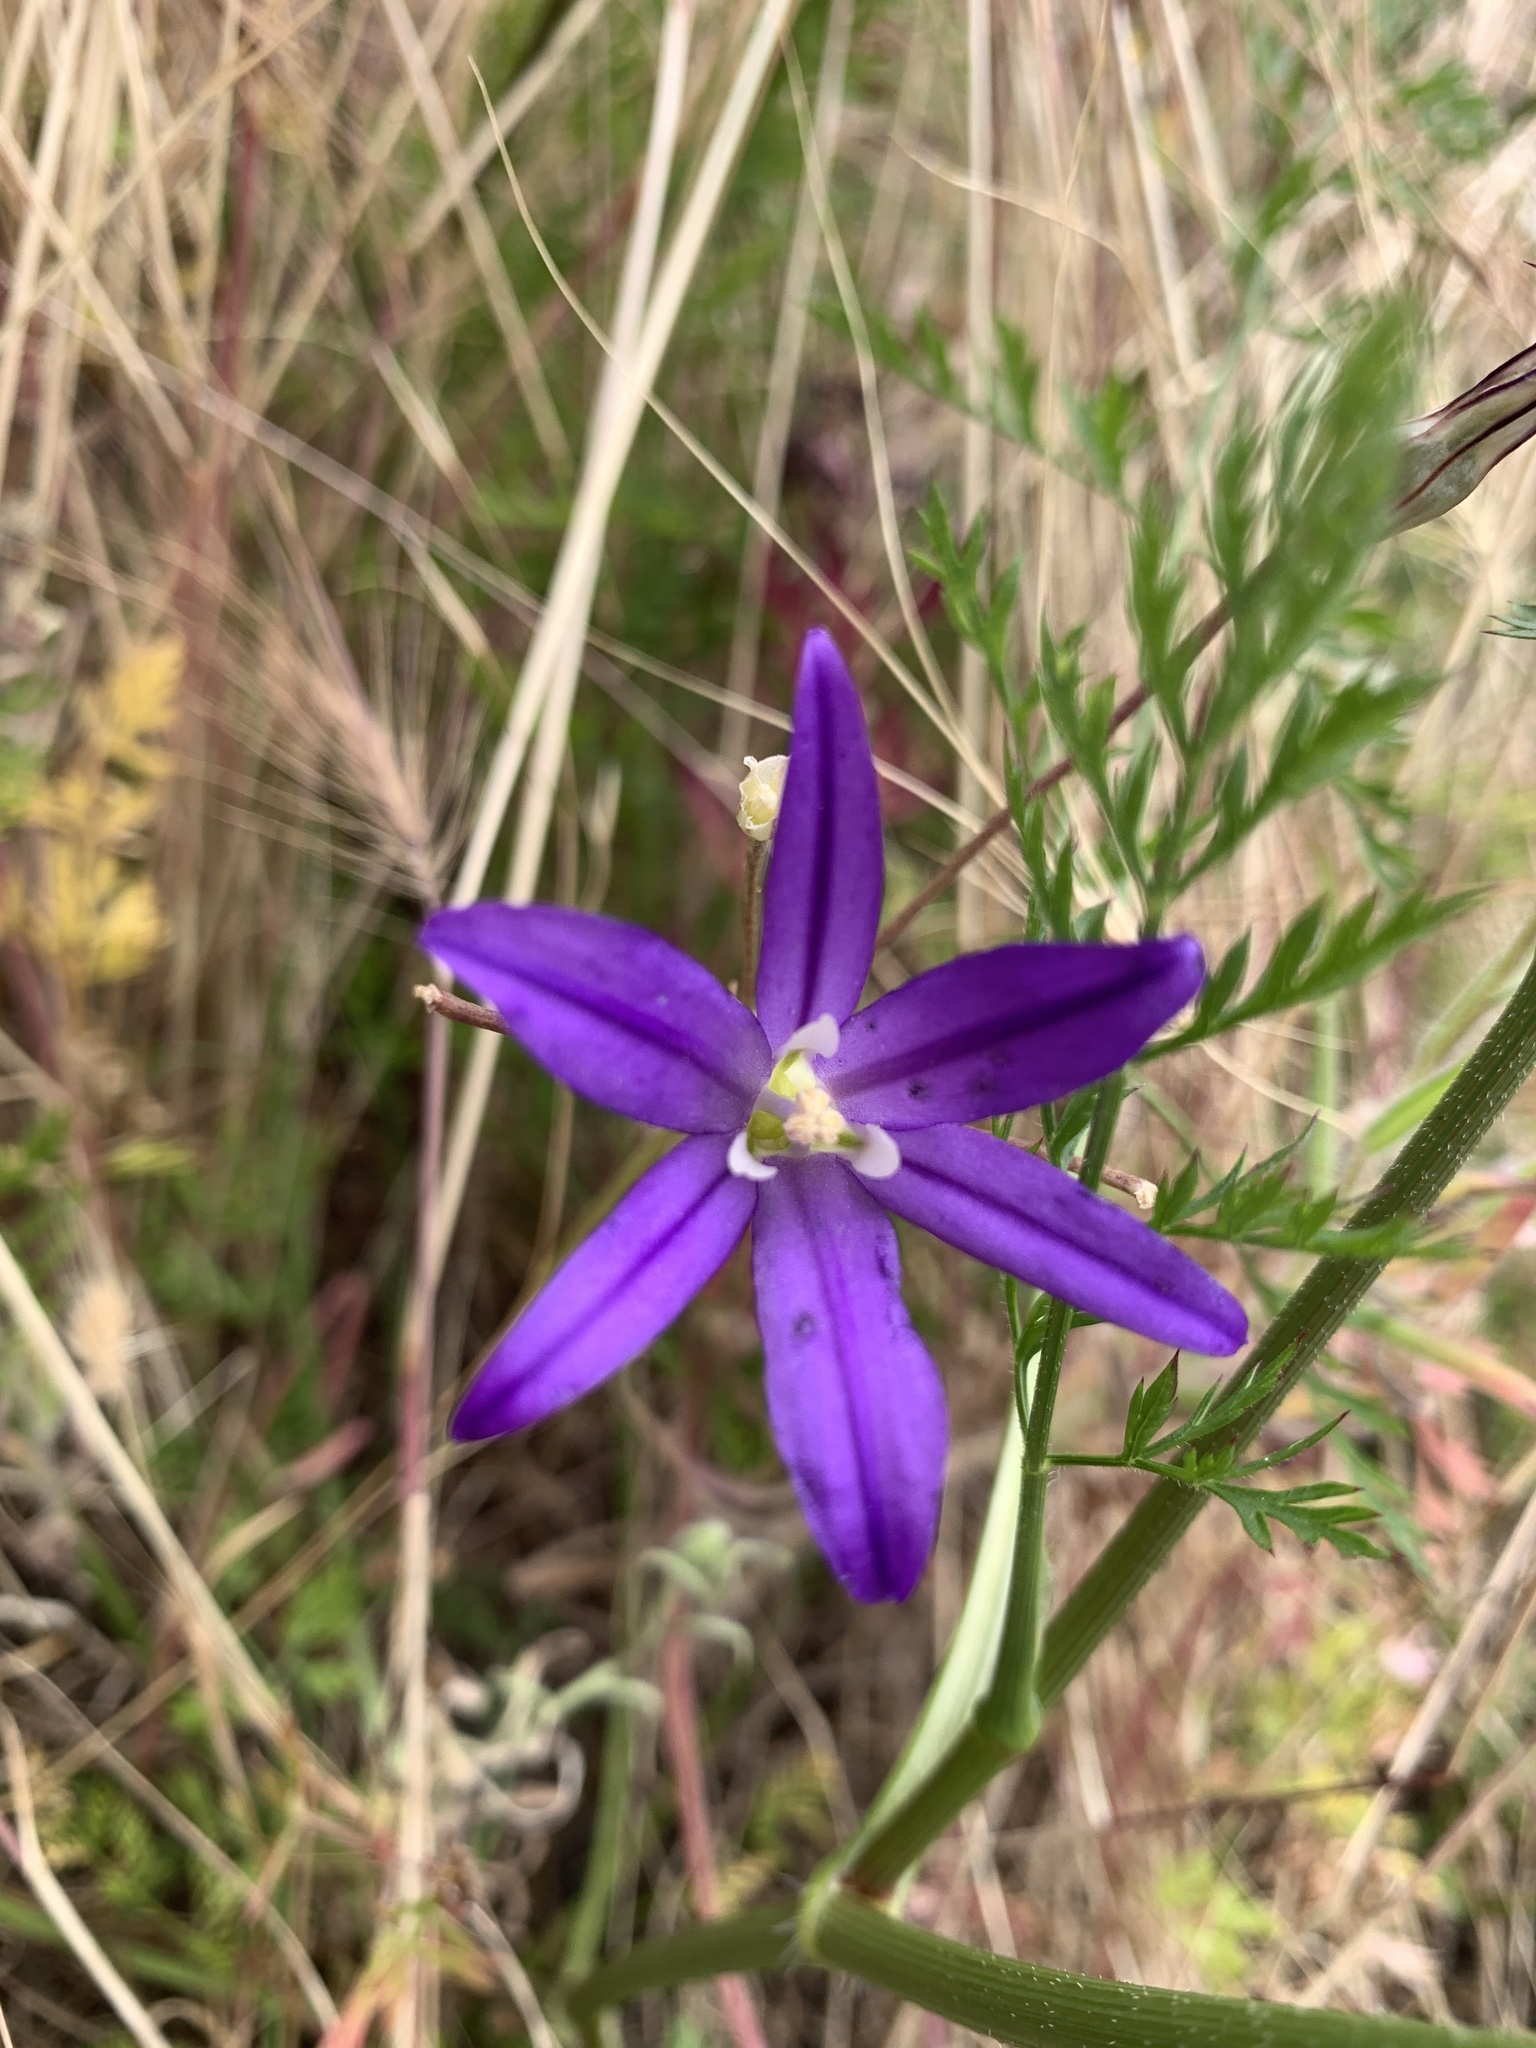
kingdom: Plantae
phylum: Tracheophyta
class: Liliopsida
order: Asparagales
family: Asparagaceae
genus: Brodiaea
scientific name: Brodiaea elegans
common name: Elegant cluster-lily
